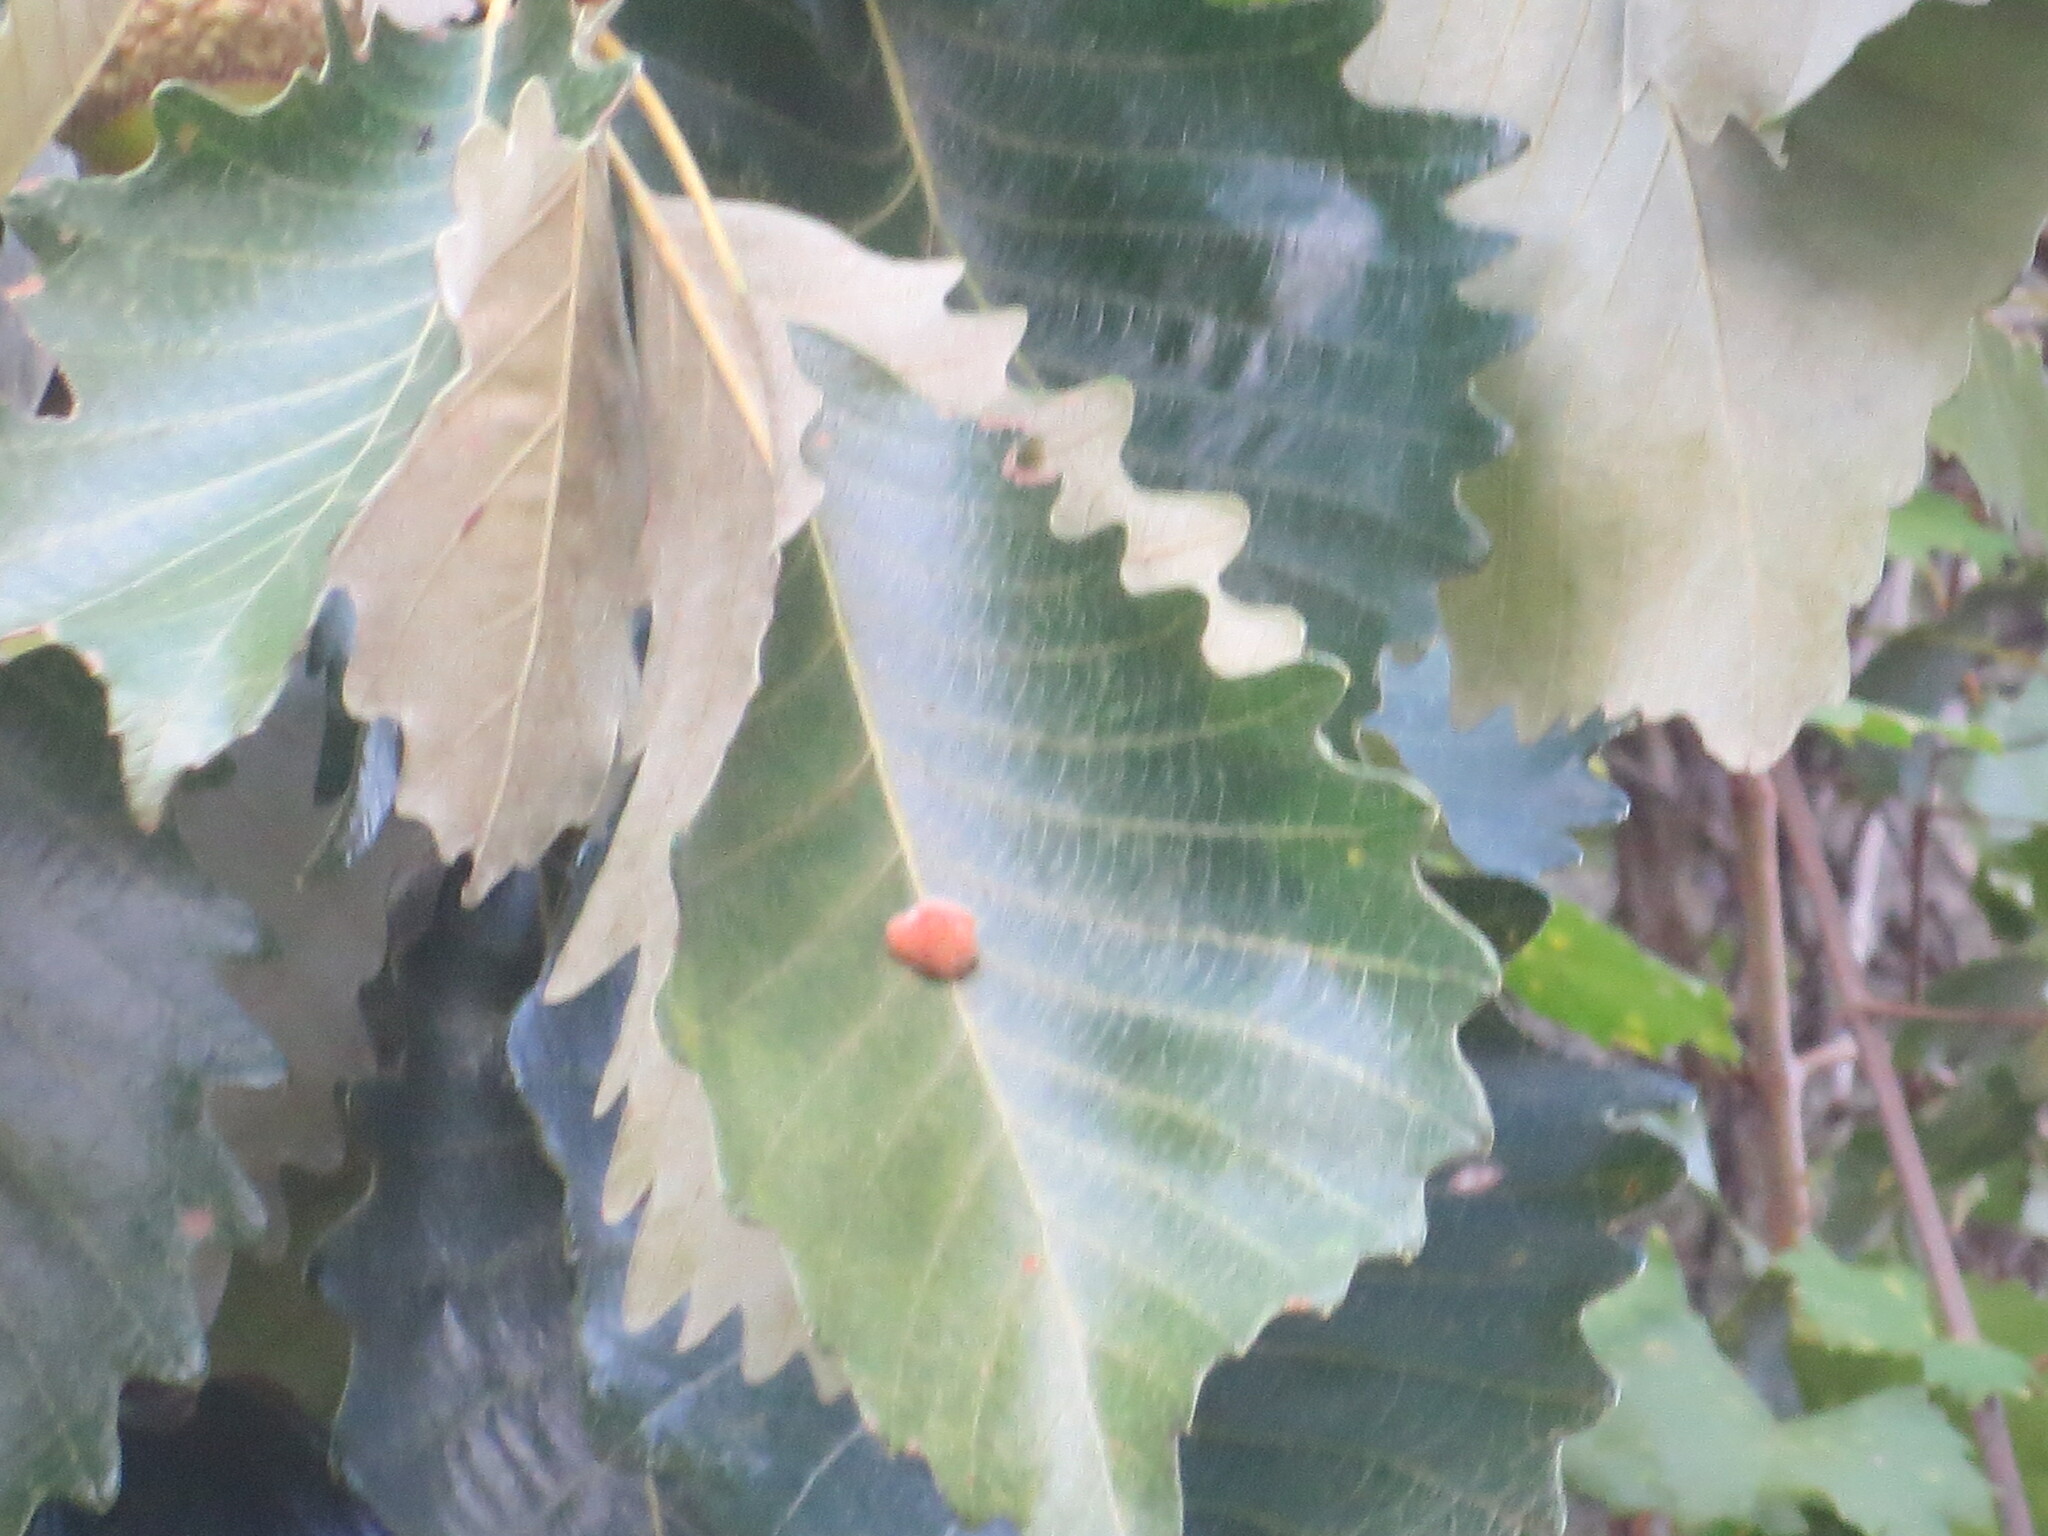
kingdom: Animalia
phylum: Arthropoda
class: Insecta
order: Hymenoptera
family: Cynipidae
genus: Andricus
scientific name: Andricus quercusflocci
